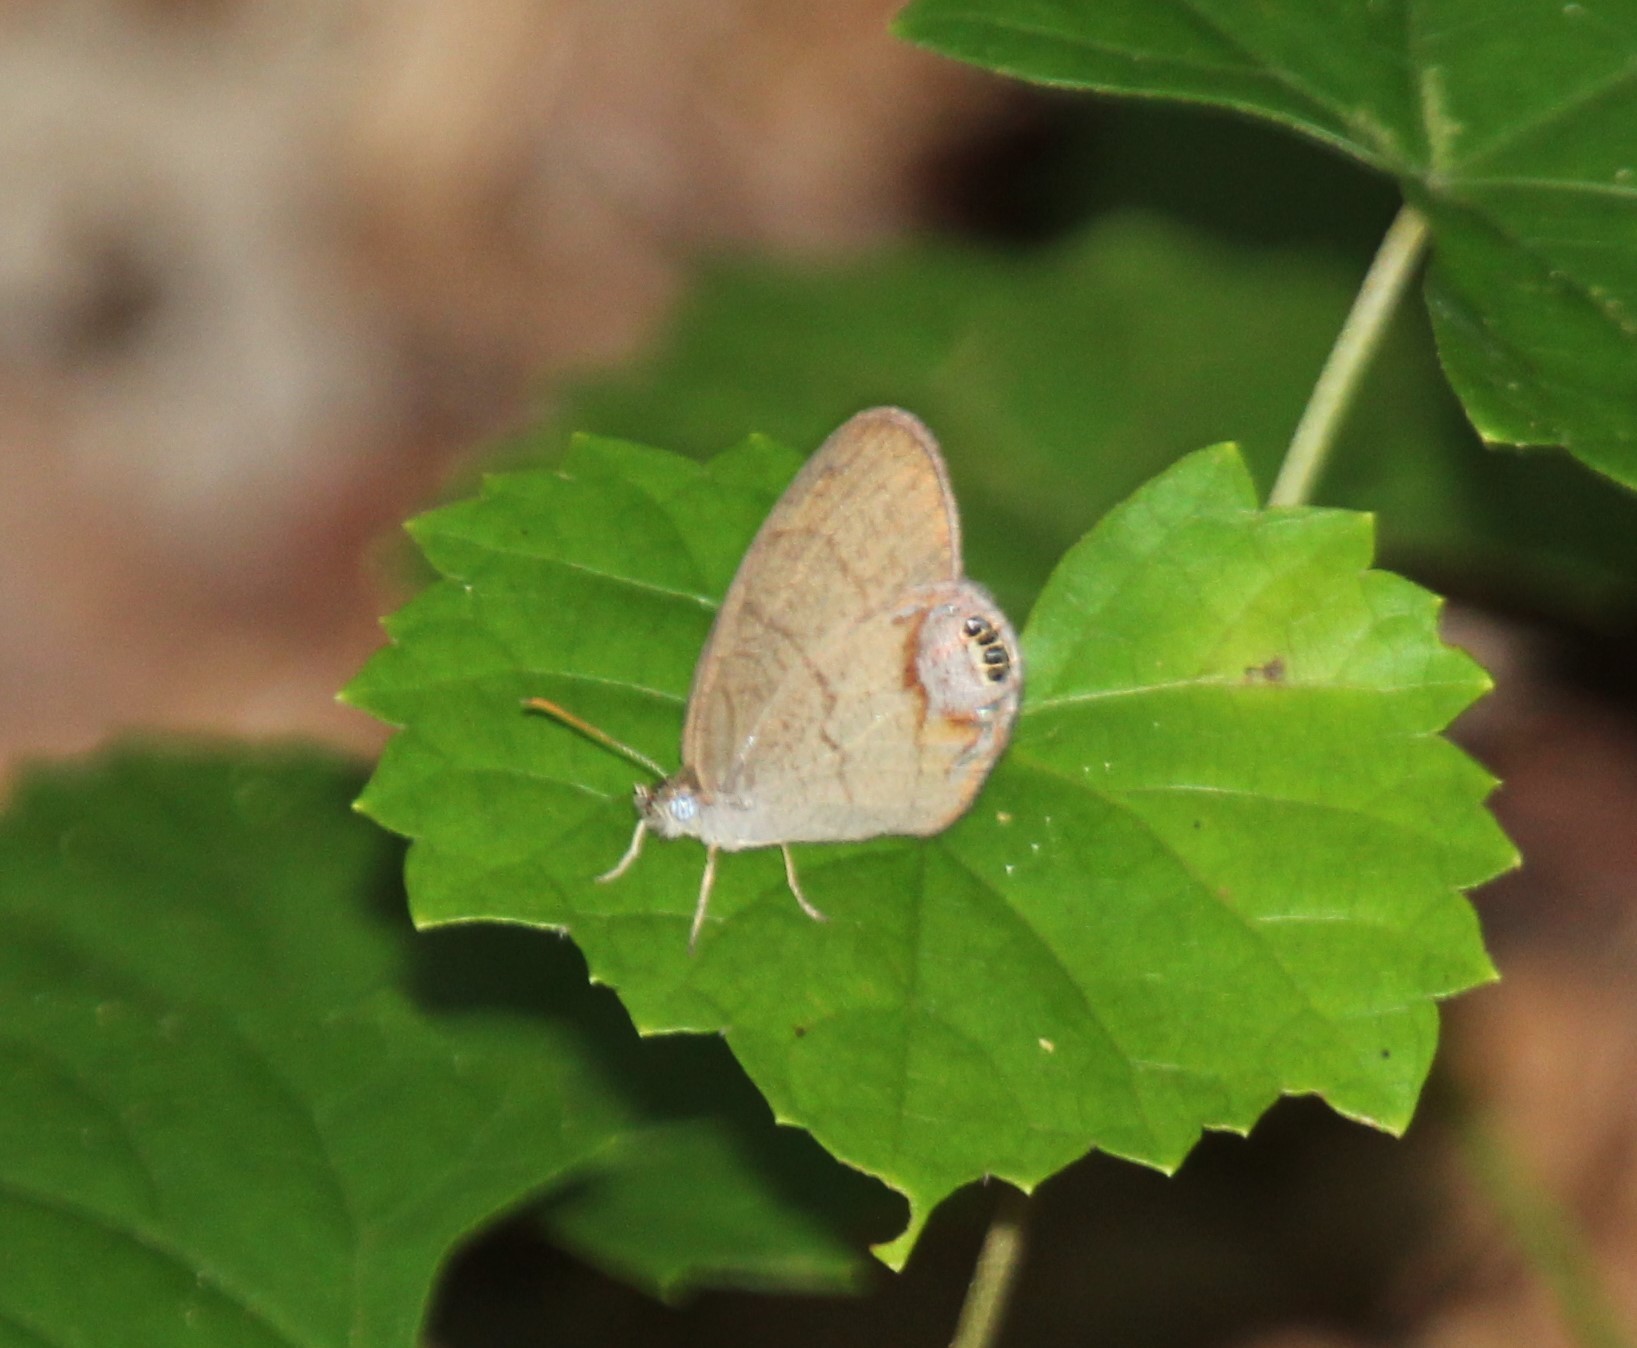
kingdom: Animalia
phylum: Arthropoda
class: Insecta
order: Lepidoptera
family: Nymphalidae
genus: Euptychia
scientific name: Euptychia cornelius
